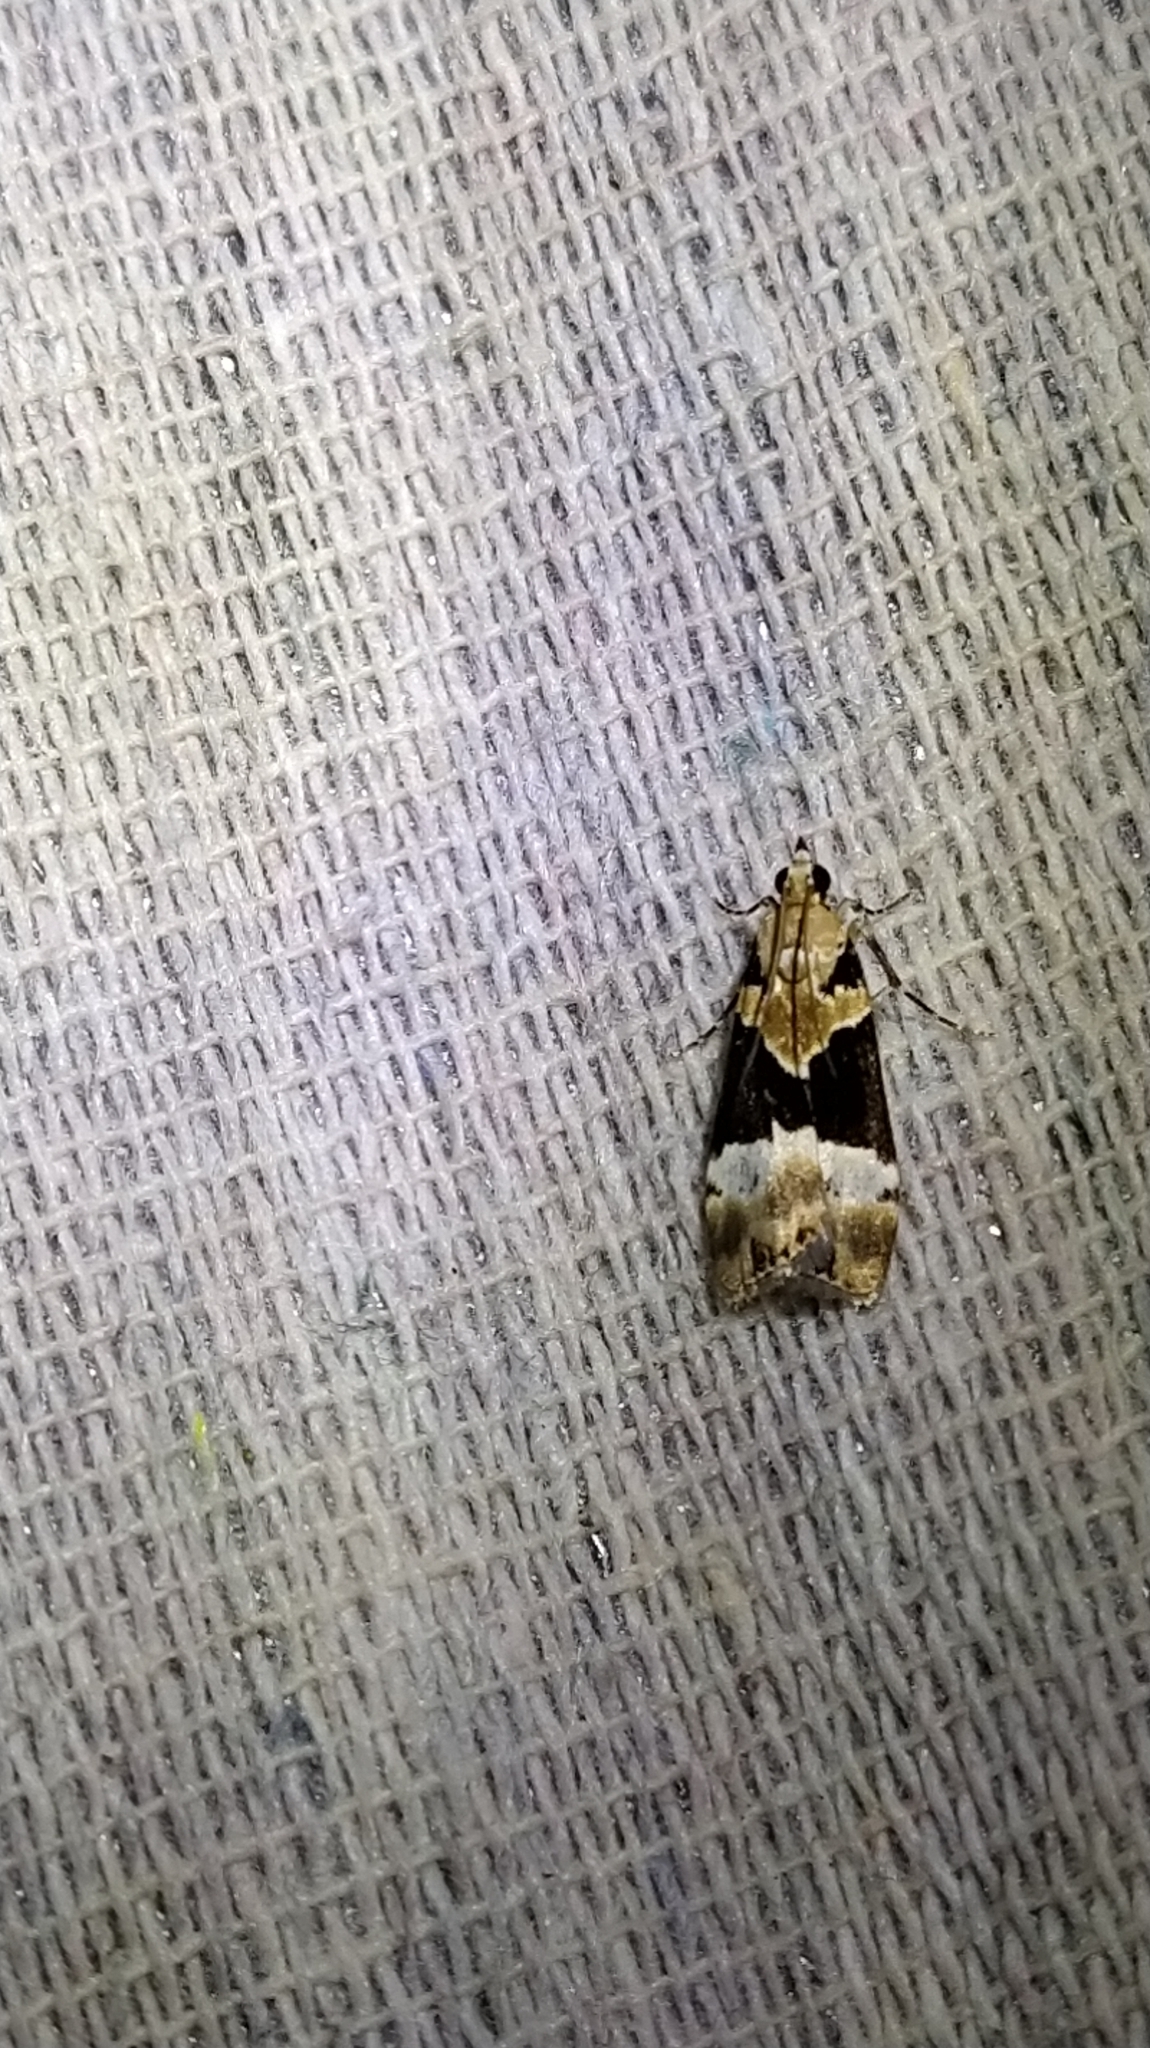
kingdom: Animalia
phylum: Arthropoda
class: Insecta
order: Lepidoptera
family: Crambidae
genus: Eudonia
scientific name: Eudonia aspidota
